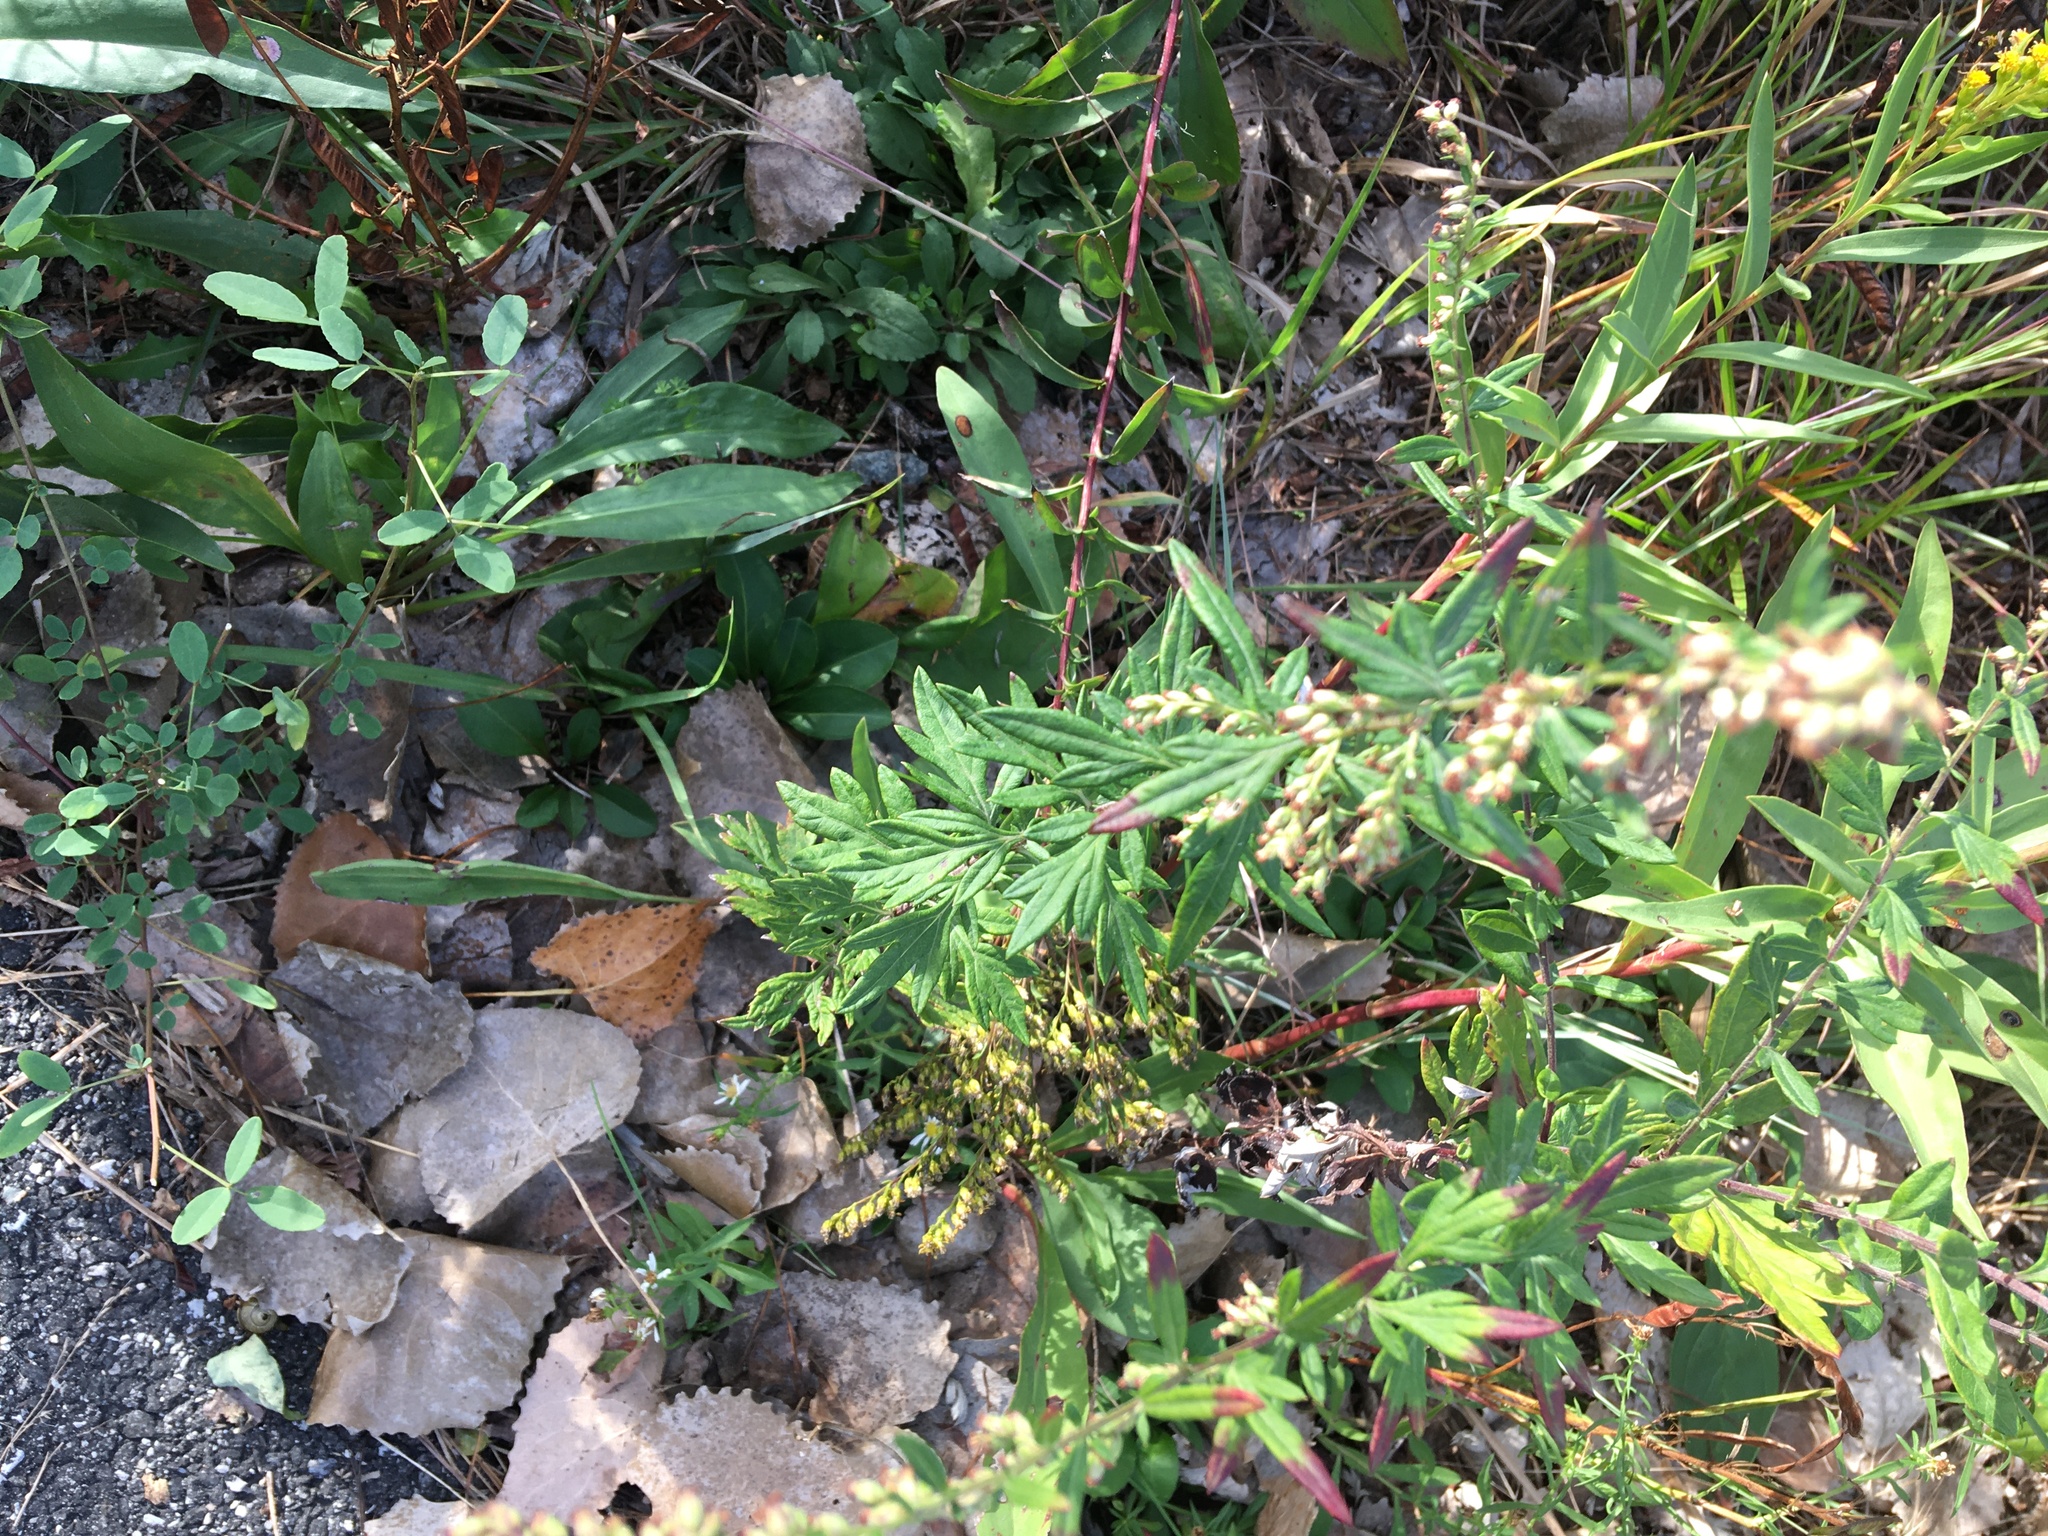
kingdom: Plantae
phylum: Tracheophyta
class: Magnoliopsida
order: Asterales
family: Asteraceae
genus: Artemisia
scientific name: Artemisia vulgaris
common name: Mugwort
